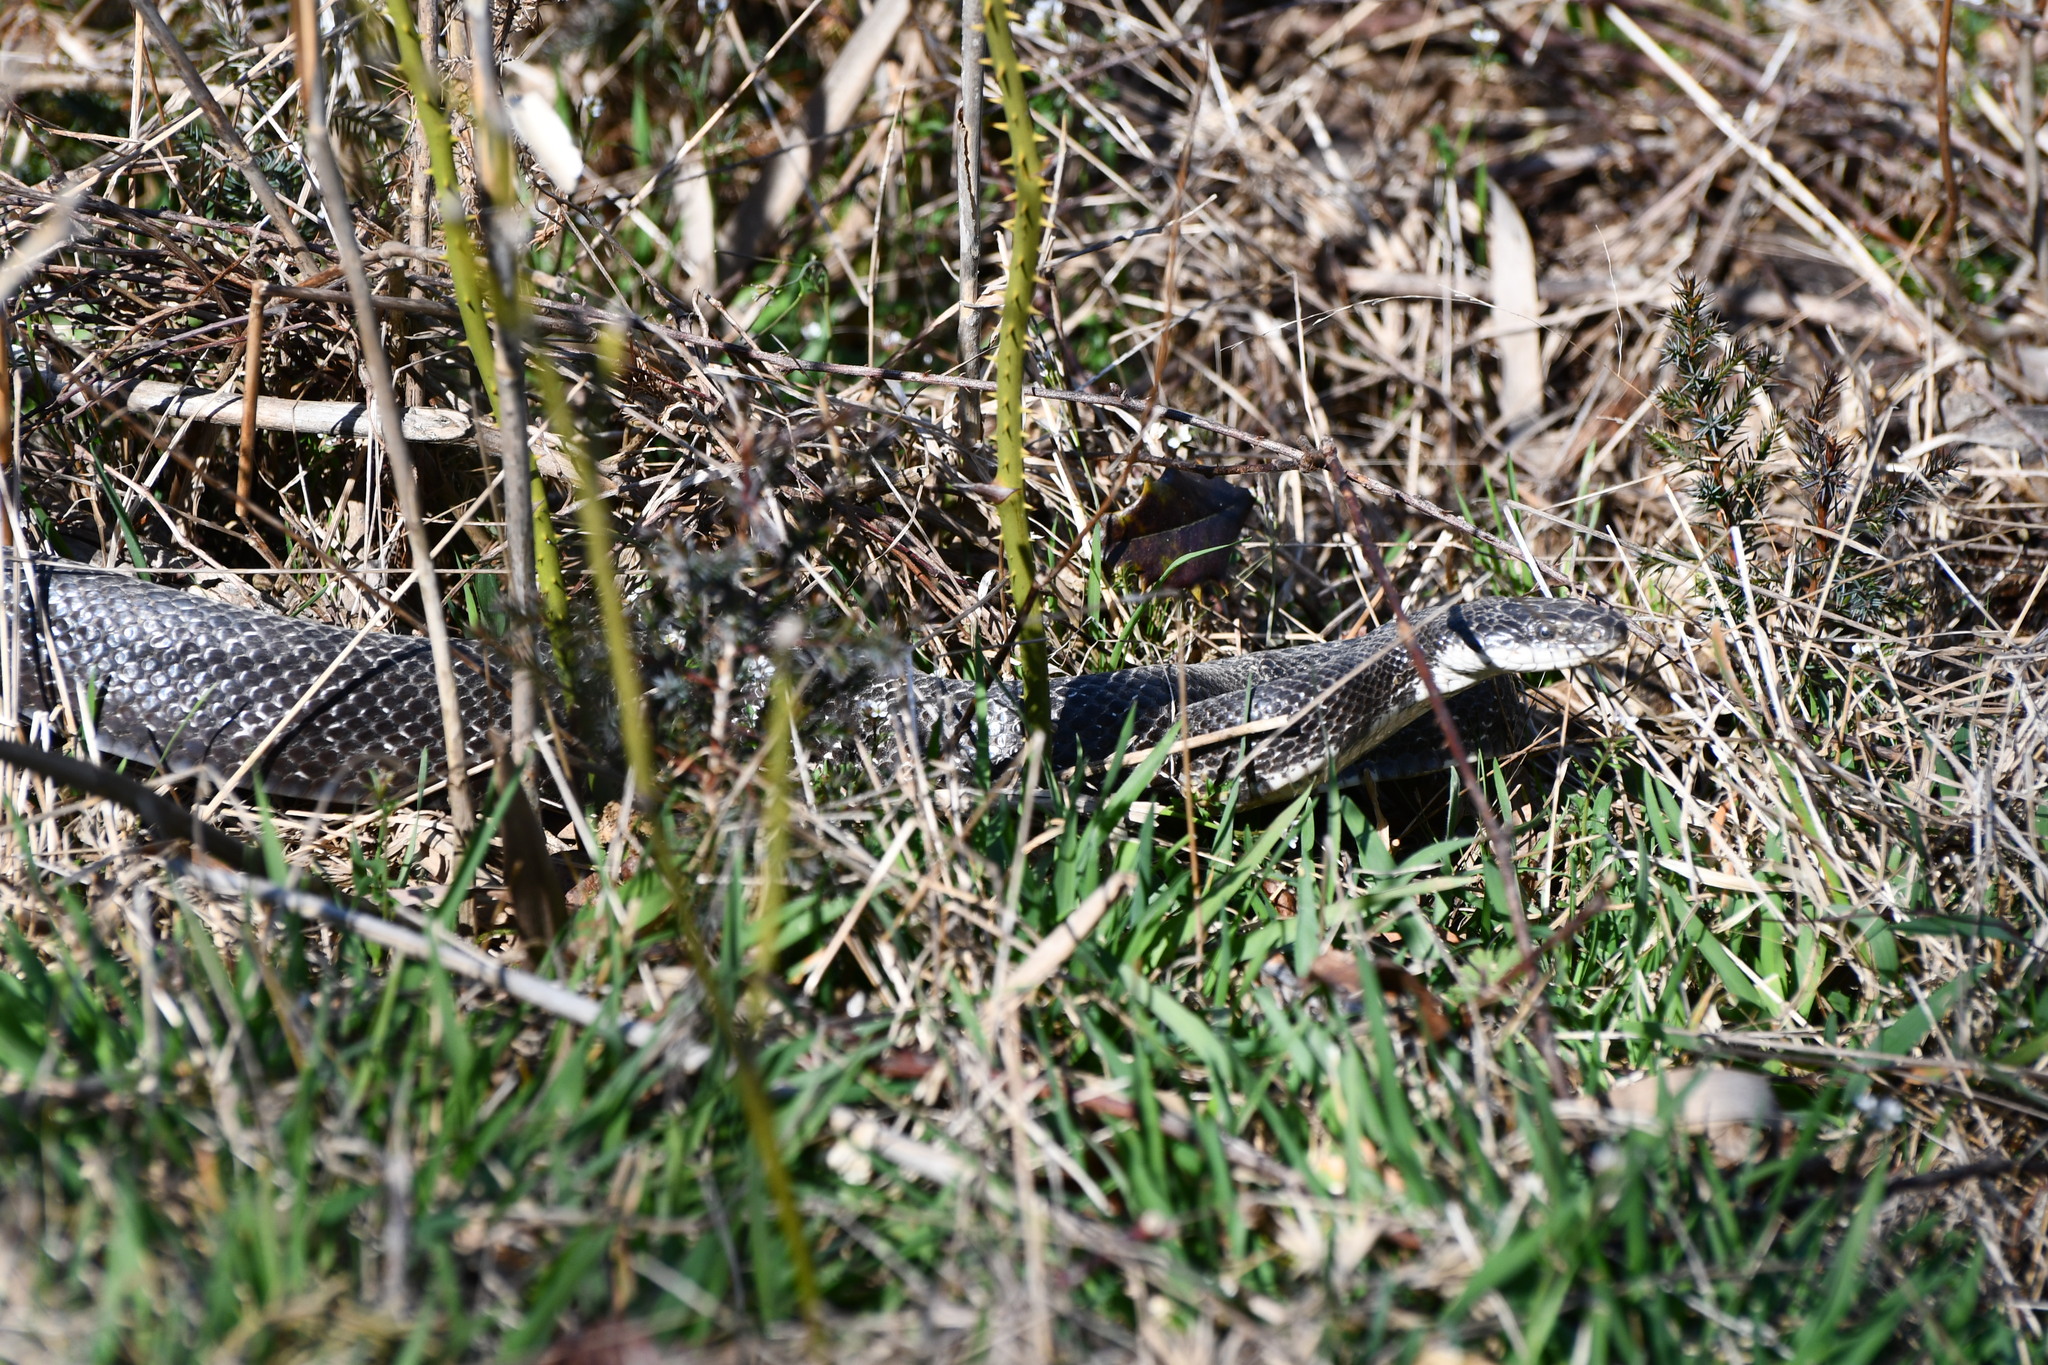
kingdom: Animalia
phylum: Chordata
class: Squamata
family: Colubridae
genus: Pantherophis
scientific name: Pantherophis
